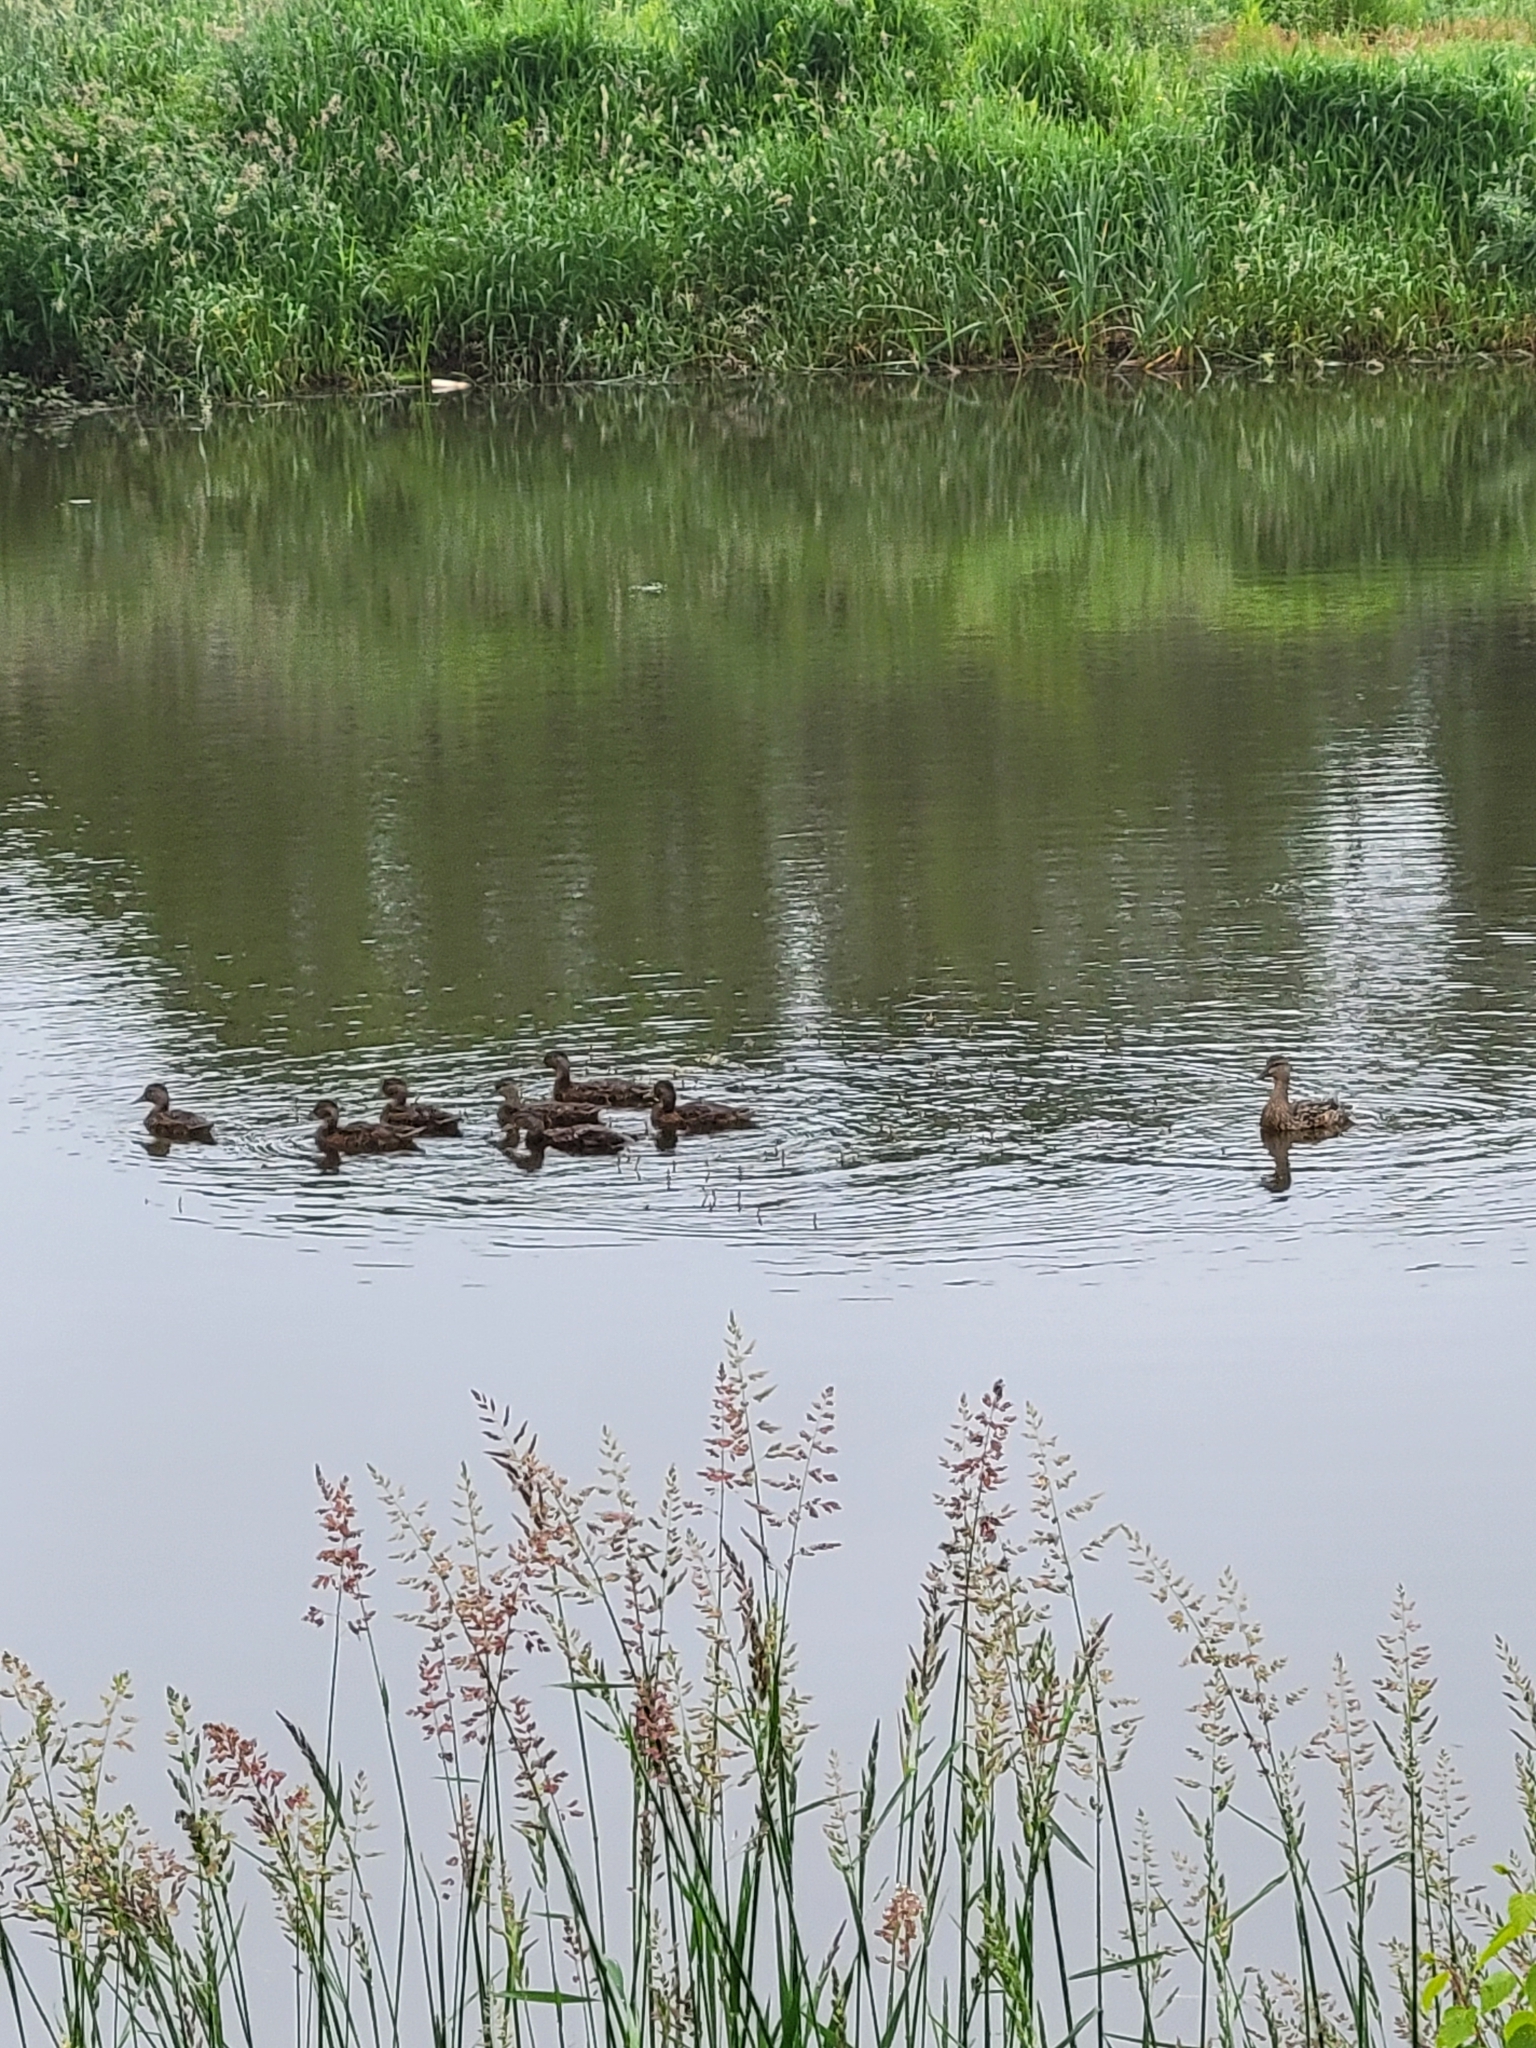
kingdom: Animalia
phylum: Chordata
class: Aves
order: Anseriformes
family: Anatidae
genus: Anas
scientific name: Anas platyrhynchos
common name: Mallard
